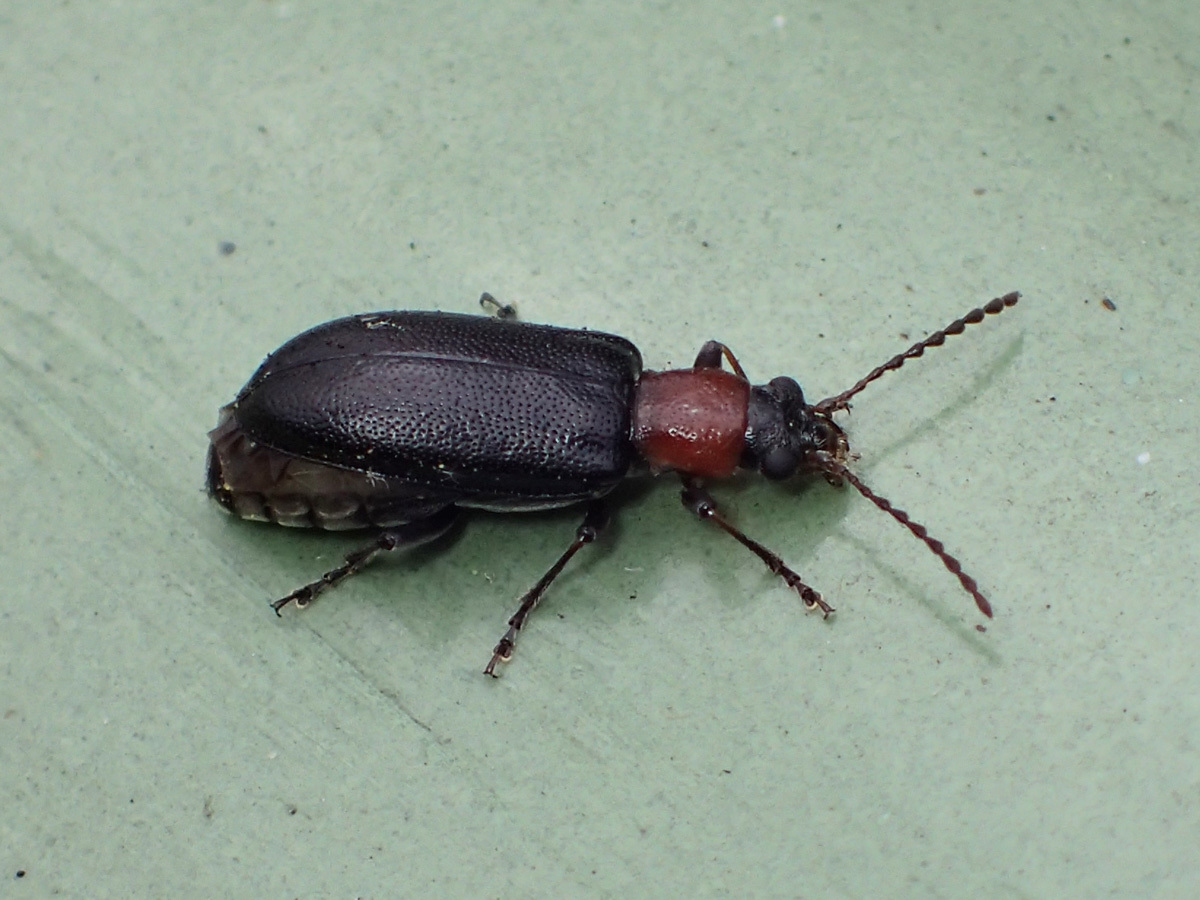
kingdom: Animalia
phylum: Arthropoda
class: Insecta
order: Coleoptera
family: Orsodacnidae
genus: Orsodacne
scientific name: Orsodacne atra
